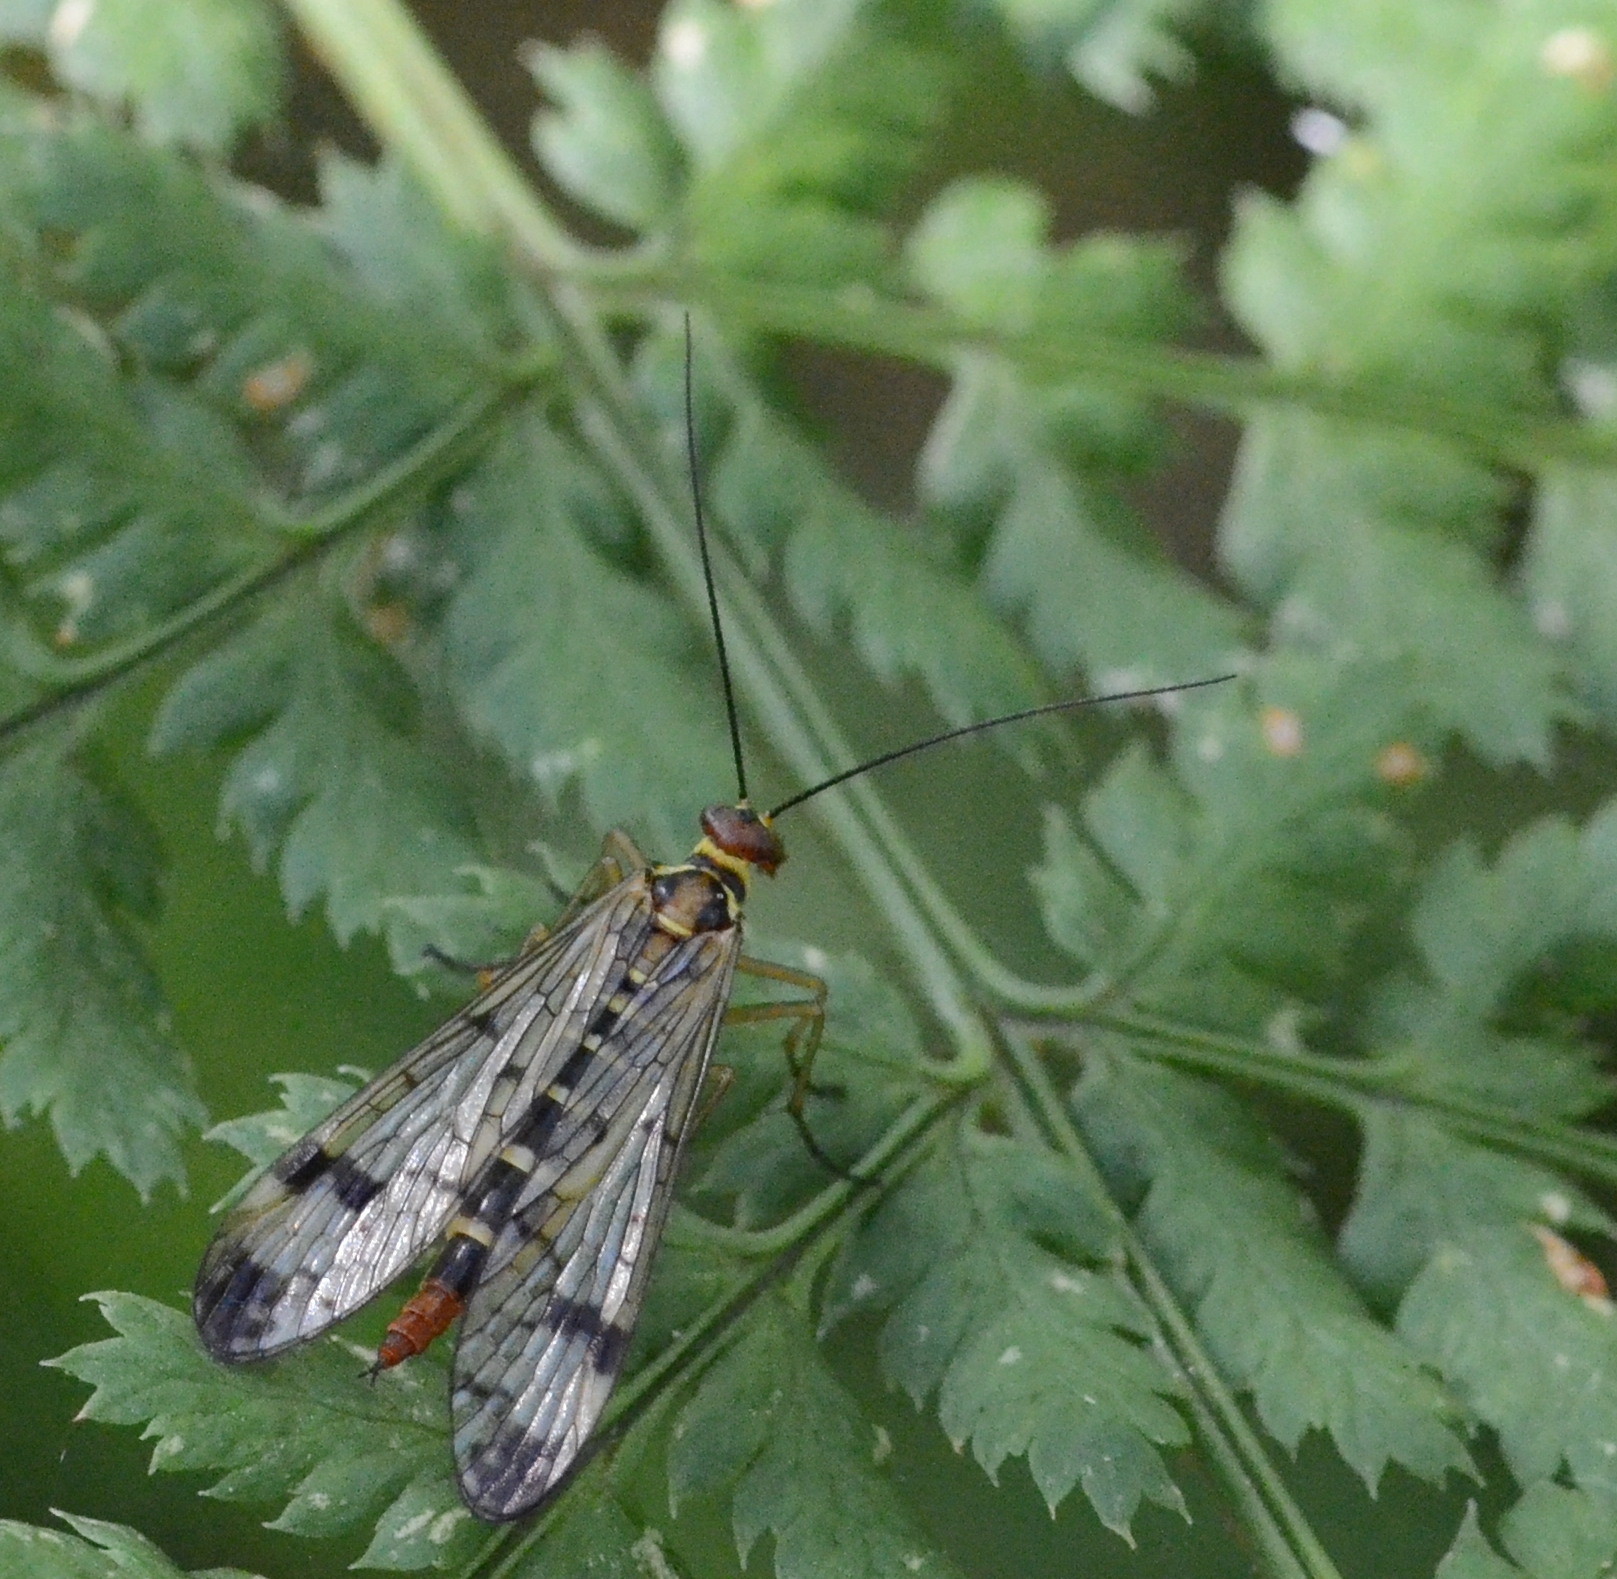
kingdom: Animalia
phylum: Arthropoda
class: Insecta
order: Mecoptera
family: Panorpidae
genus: Panorpa
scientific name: Panorpa cognata
